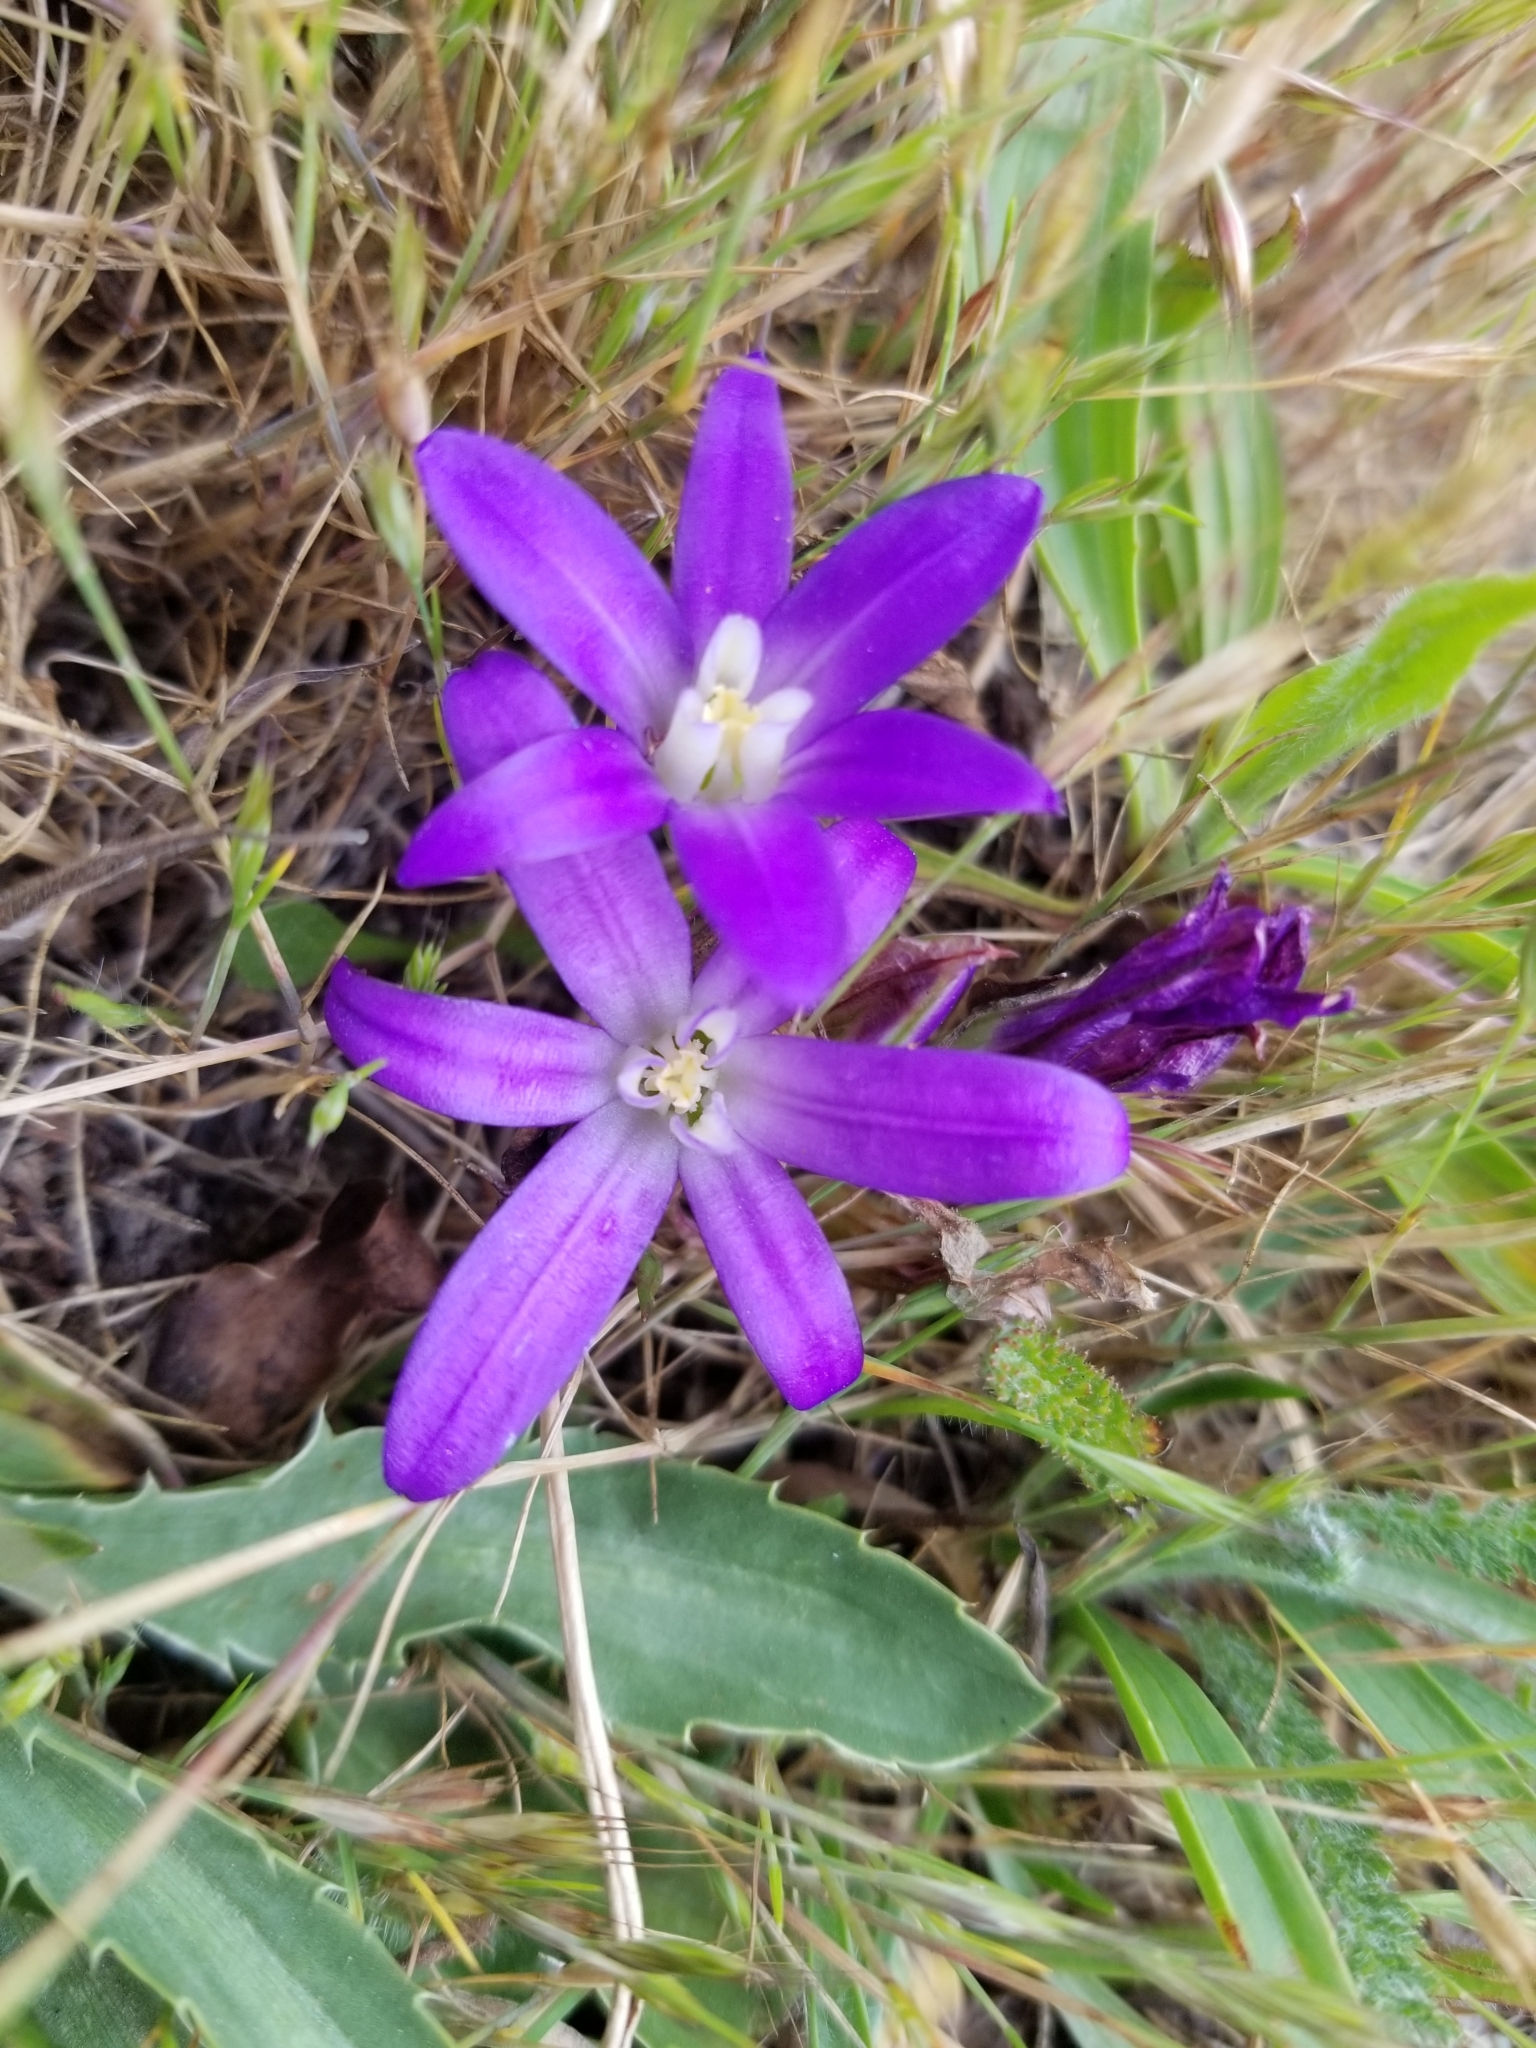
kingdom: Plantae
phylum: Tracheophyta
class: Liliopsida
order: Asparagales
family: Asparagaceae
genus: Brodiaea
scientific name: Brodiaea terrestris
